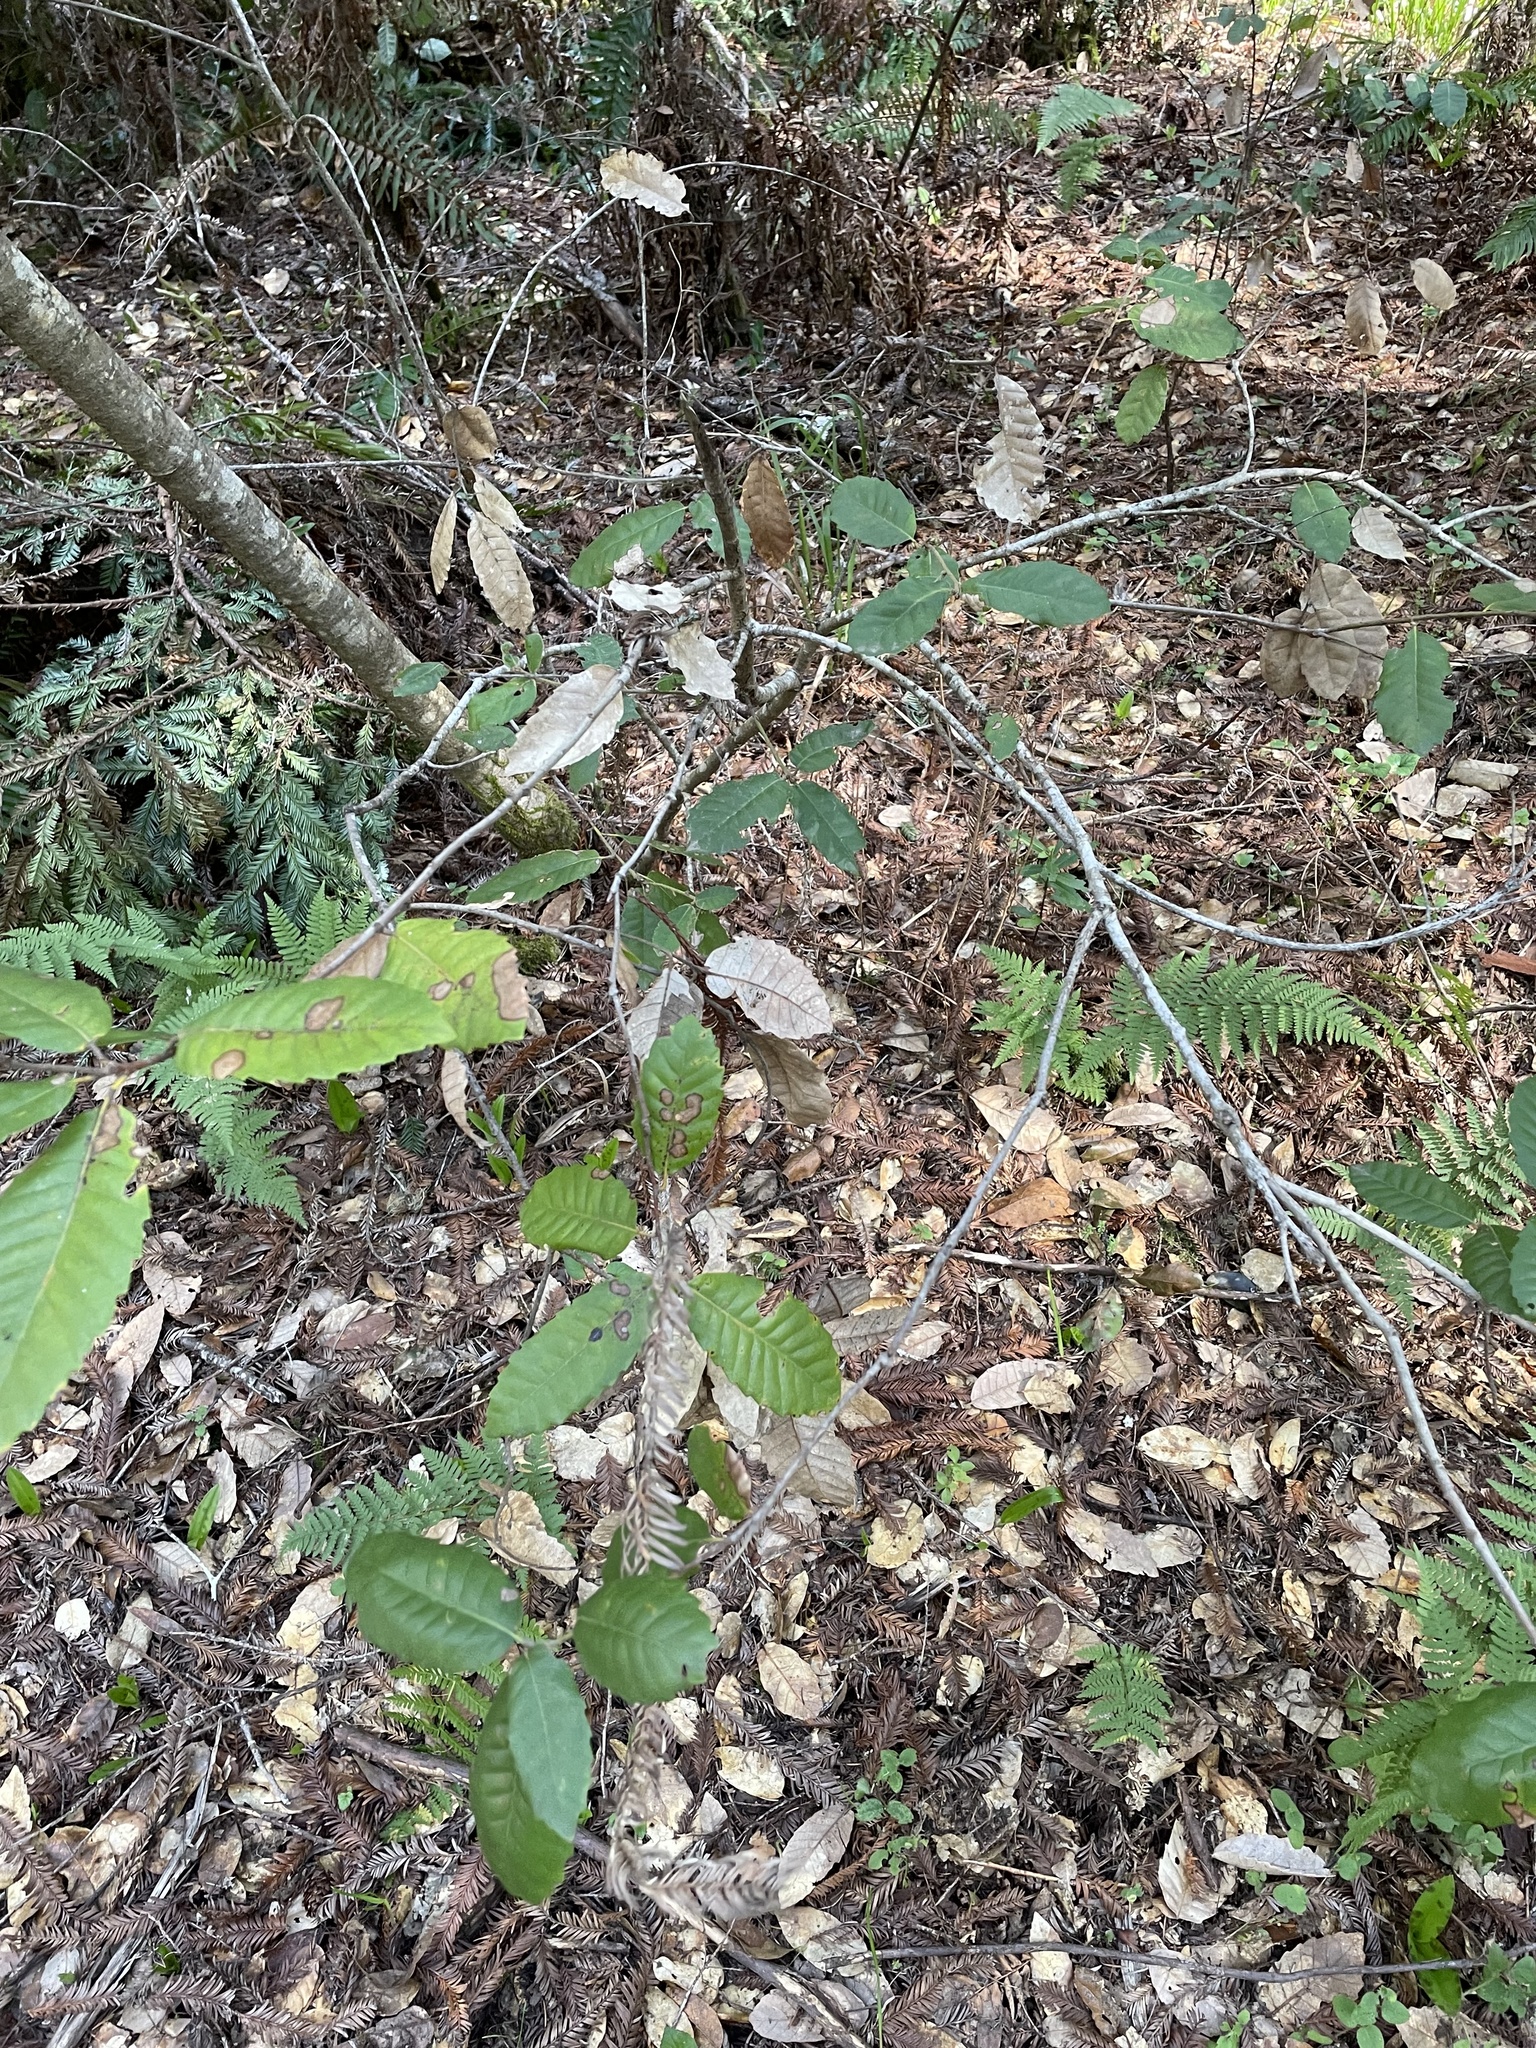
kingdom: Plantae
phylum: Tracheophyta
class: Magnoliopsida
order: Fagales
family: Fagaceae
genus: Notholithocarpus
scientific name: Notholithocarpus densiflorus
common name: Tan bark oak
